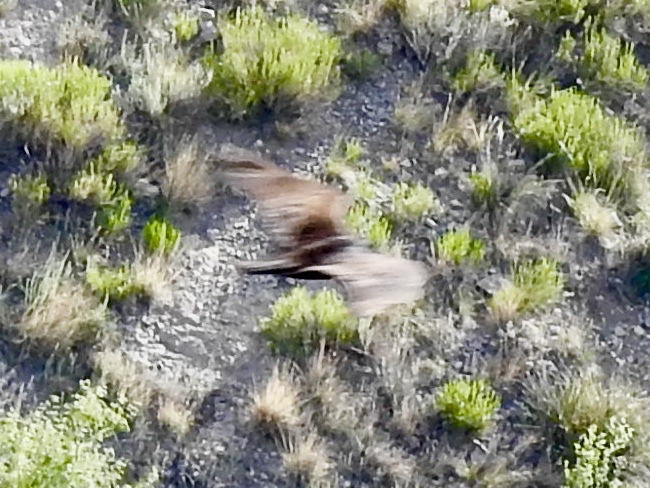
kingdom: Animalia
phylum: Chordata
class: Aves
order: Accipitriformes
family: Cathartidae
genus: Cathartes
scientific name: Cathartes aura
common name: Turkey vulture
